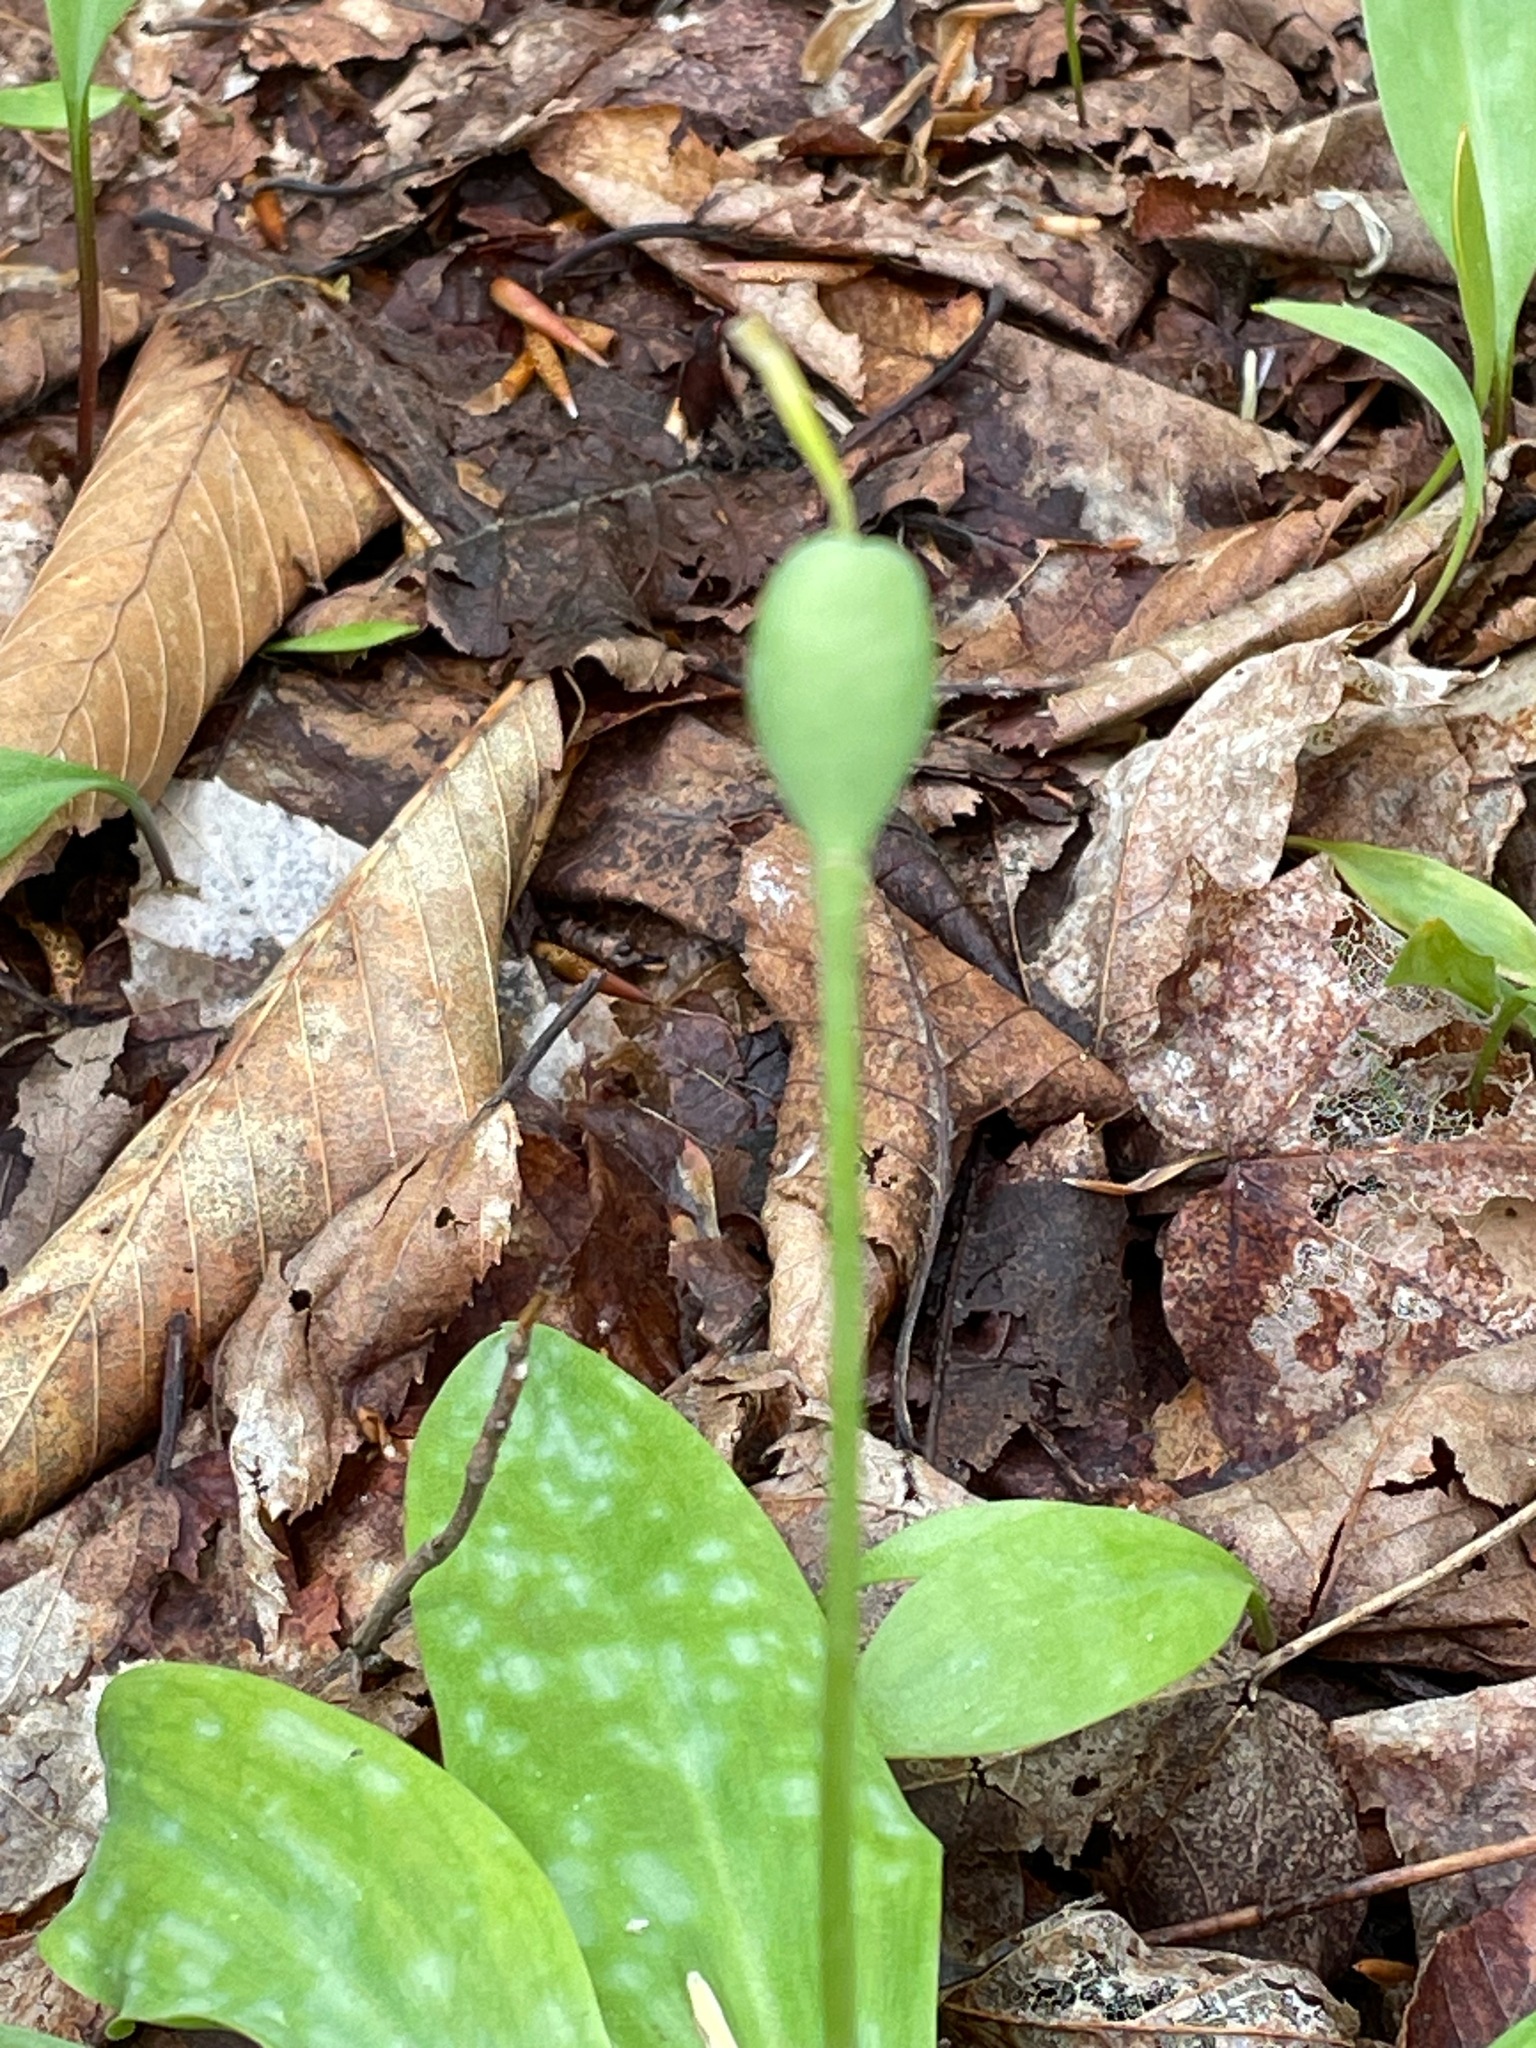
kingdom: Plantae
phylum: Tracheophyta
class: Liliopsida
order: Liliales
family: Liliaceae
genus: Erythronium
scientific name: Erythronium americanum
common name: Yellow adder's-tongue
